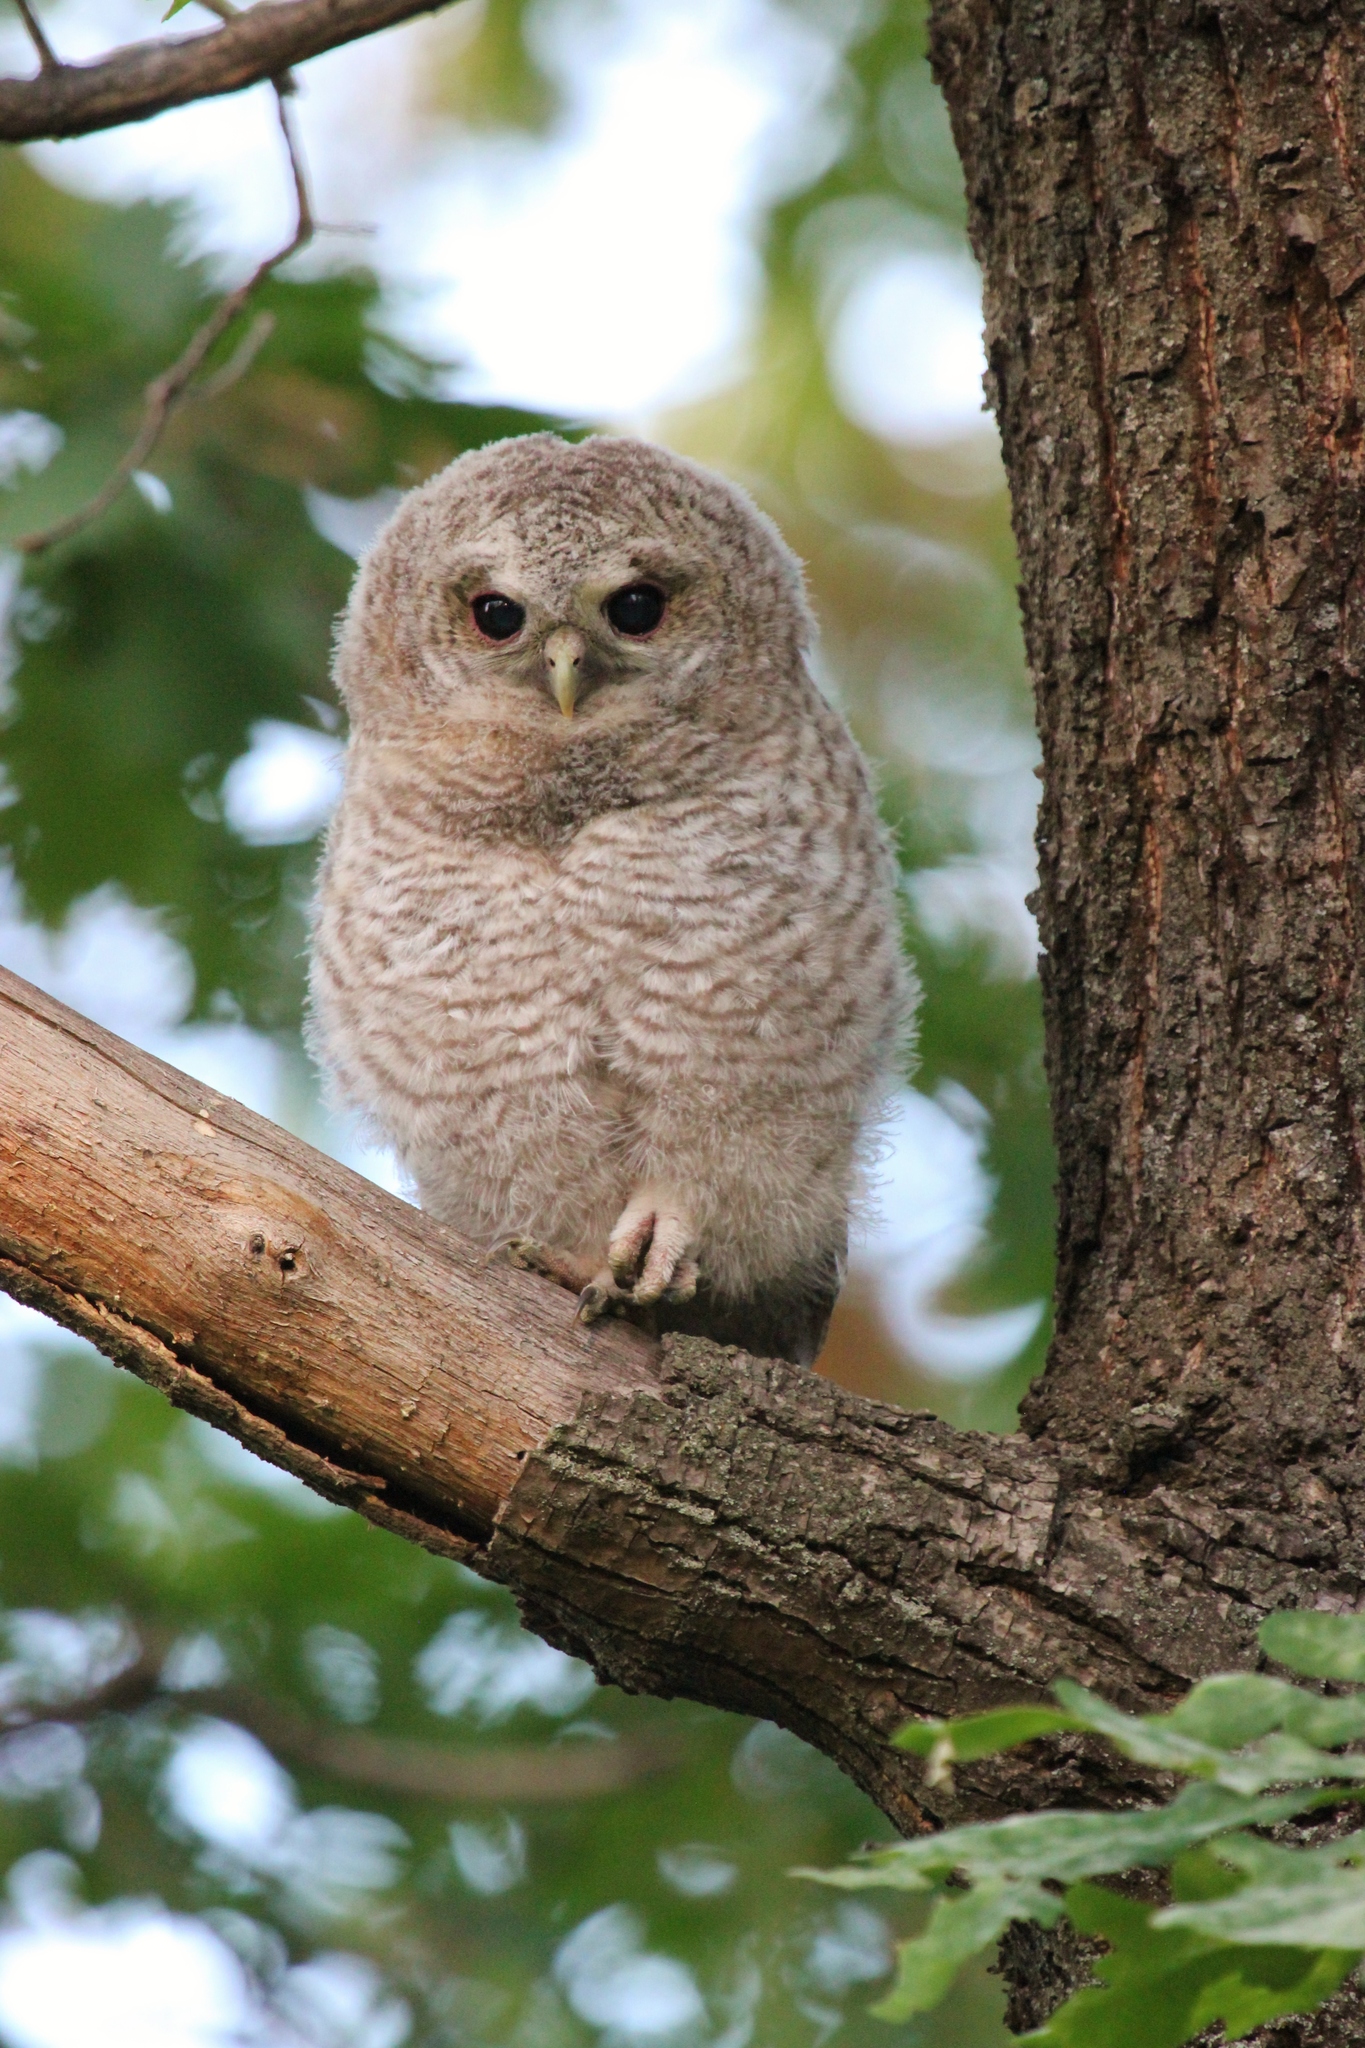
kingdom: Animalia
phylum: Chordata
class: Aves
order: Strigiformes
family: Strigidae
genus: Strix
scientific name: Strix aluco
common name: Tawny owl
